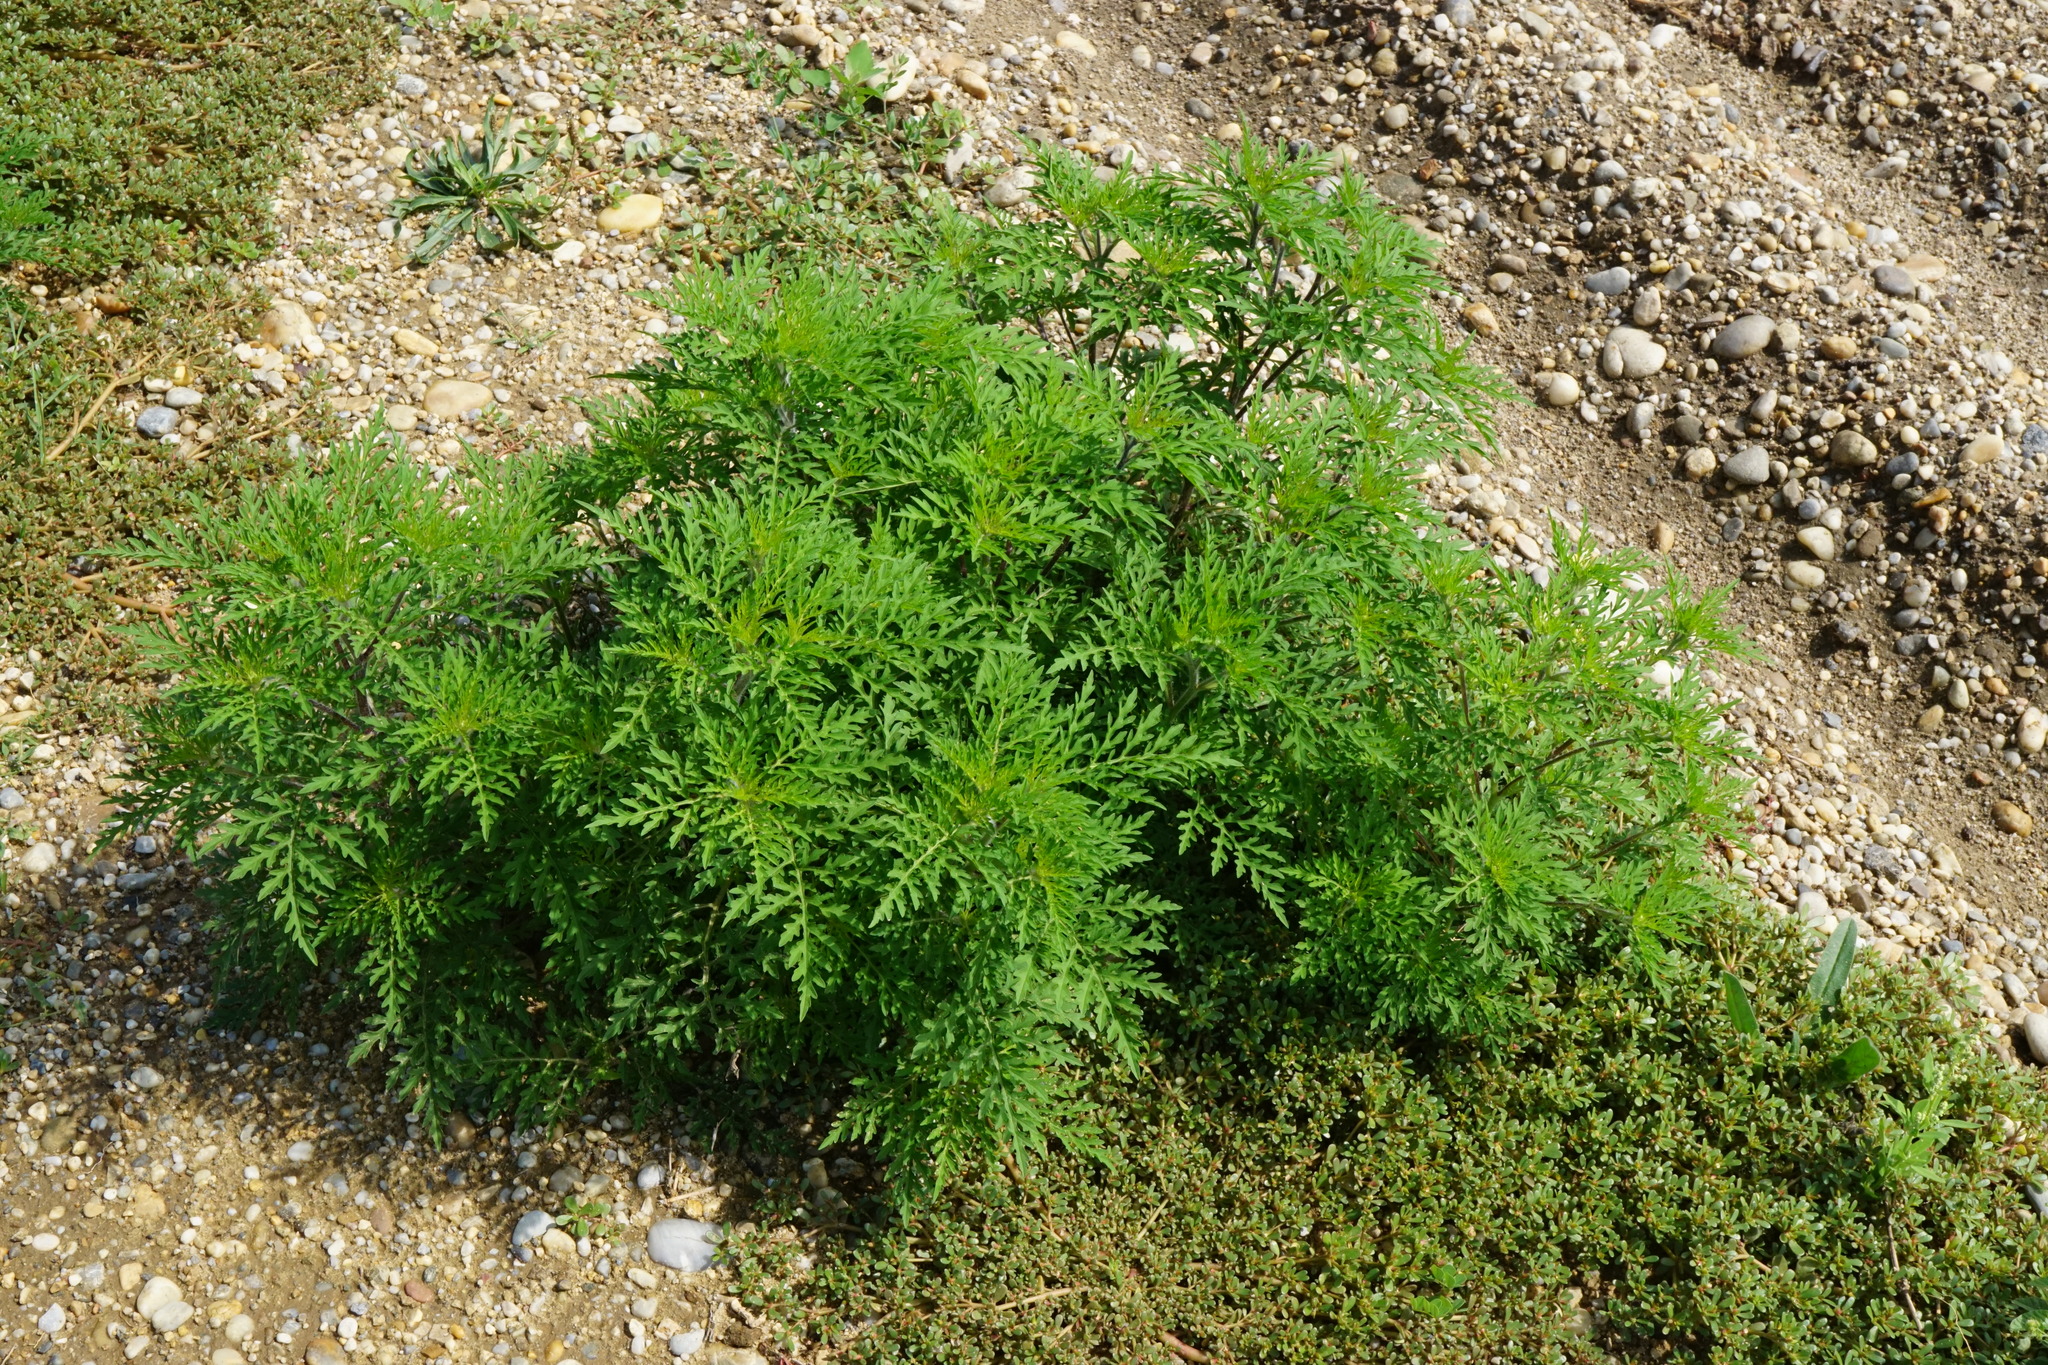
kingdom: Plantae
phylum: Tracheophyta
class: Magnoliopsida
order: Asterales
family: Asteraceae
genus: Ambrosia
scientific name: Ambrosia artemisiifolia
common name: Annual ragweed
